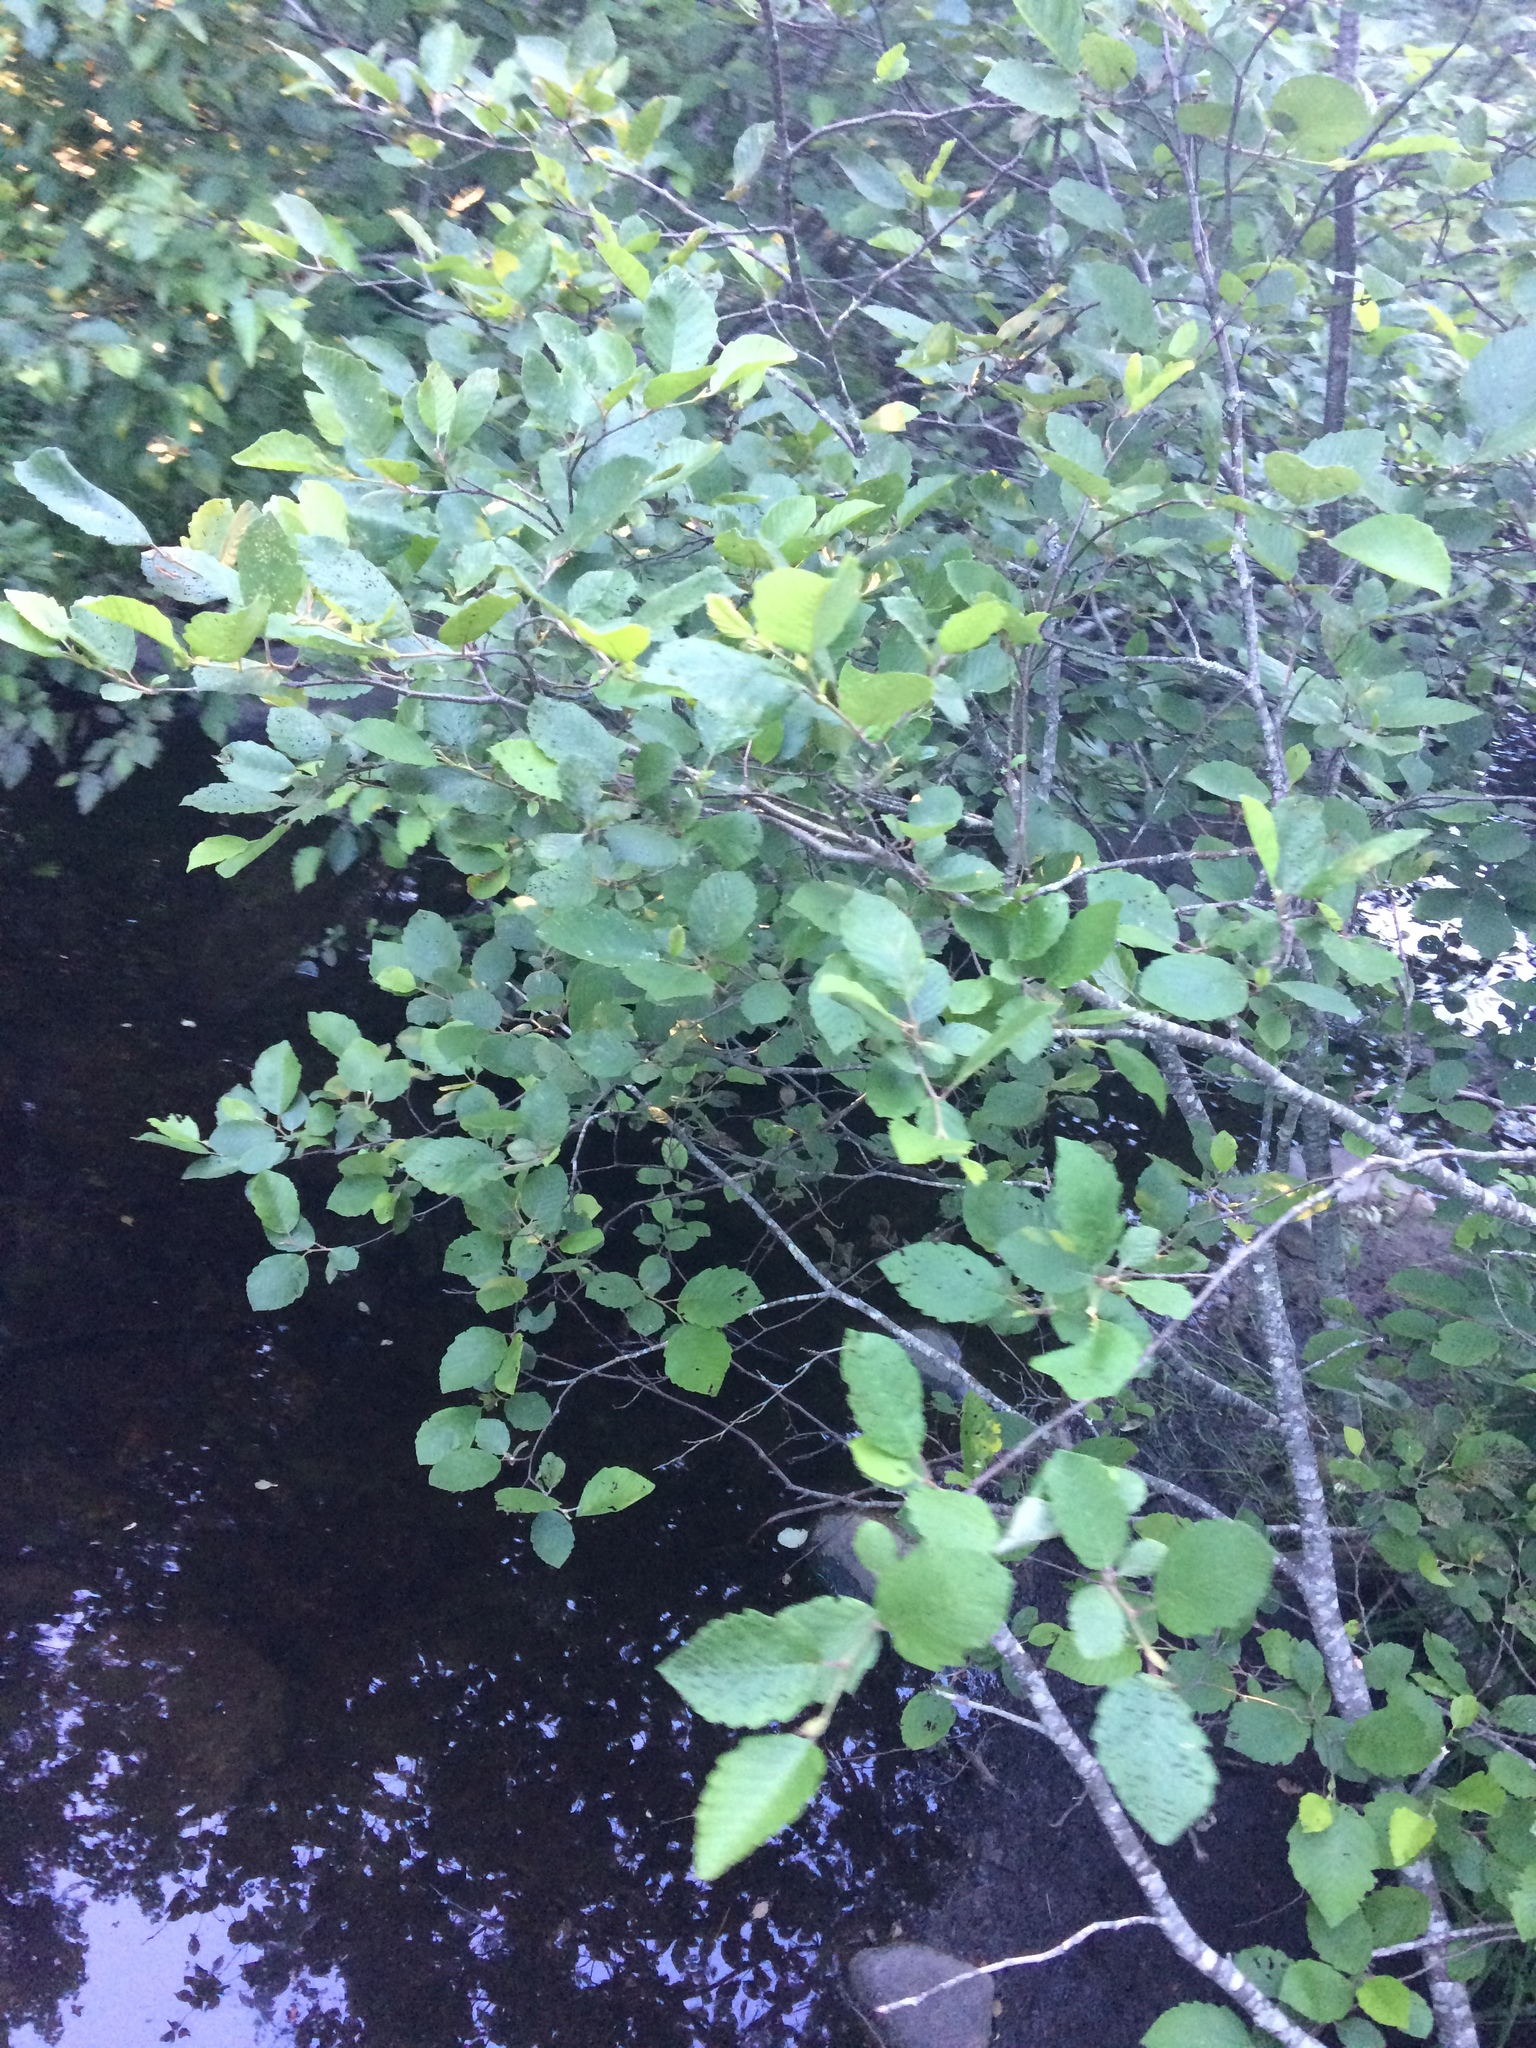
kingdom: Plantae
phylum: Tracheophyta
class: Magnoliopsida
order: Fagales
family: Betulaceae
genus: Alnus
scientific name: Alnus incana
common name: Grey alder
